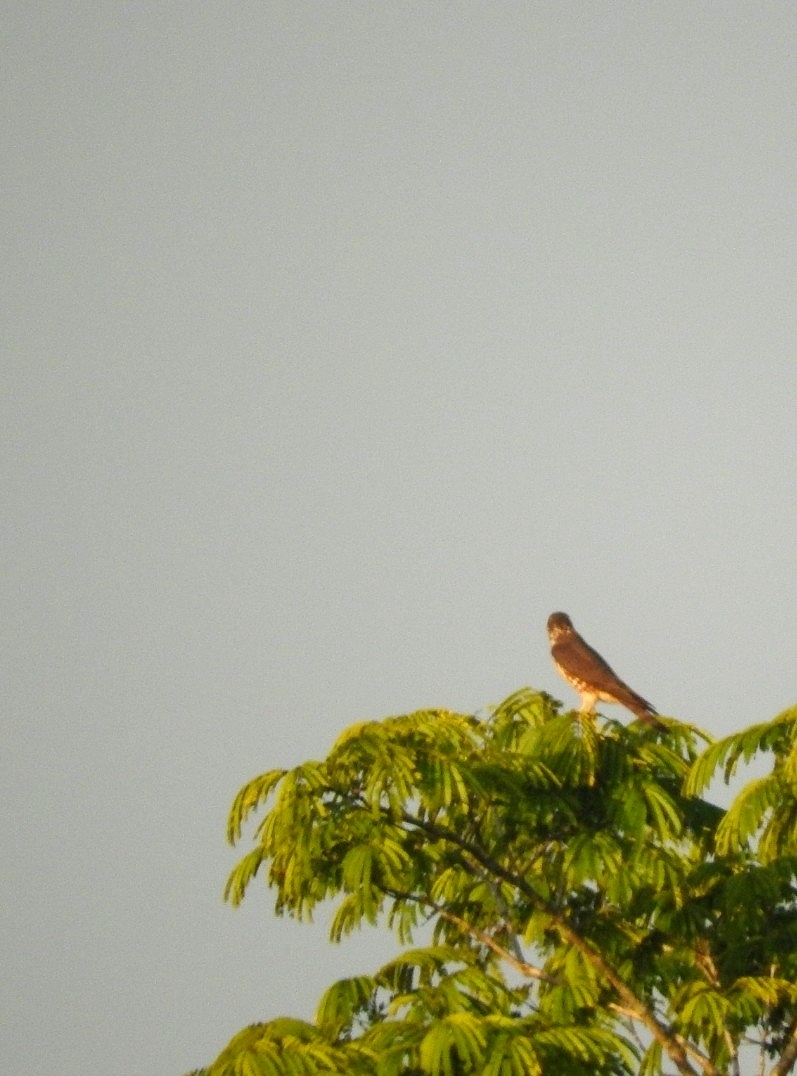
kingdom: Animalia
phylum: Chordata
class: Aves
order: Falconiformes
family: Falconidae
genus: Falco
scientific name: Falco columbarius
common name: Merlin
